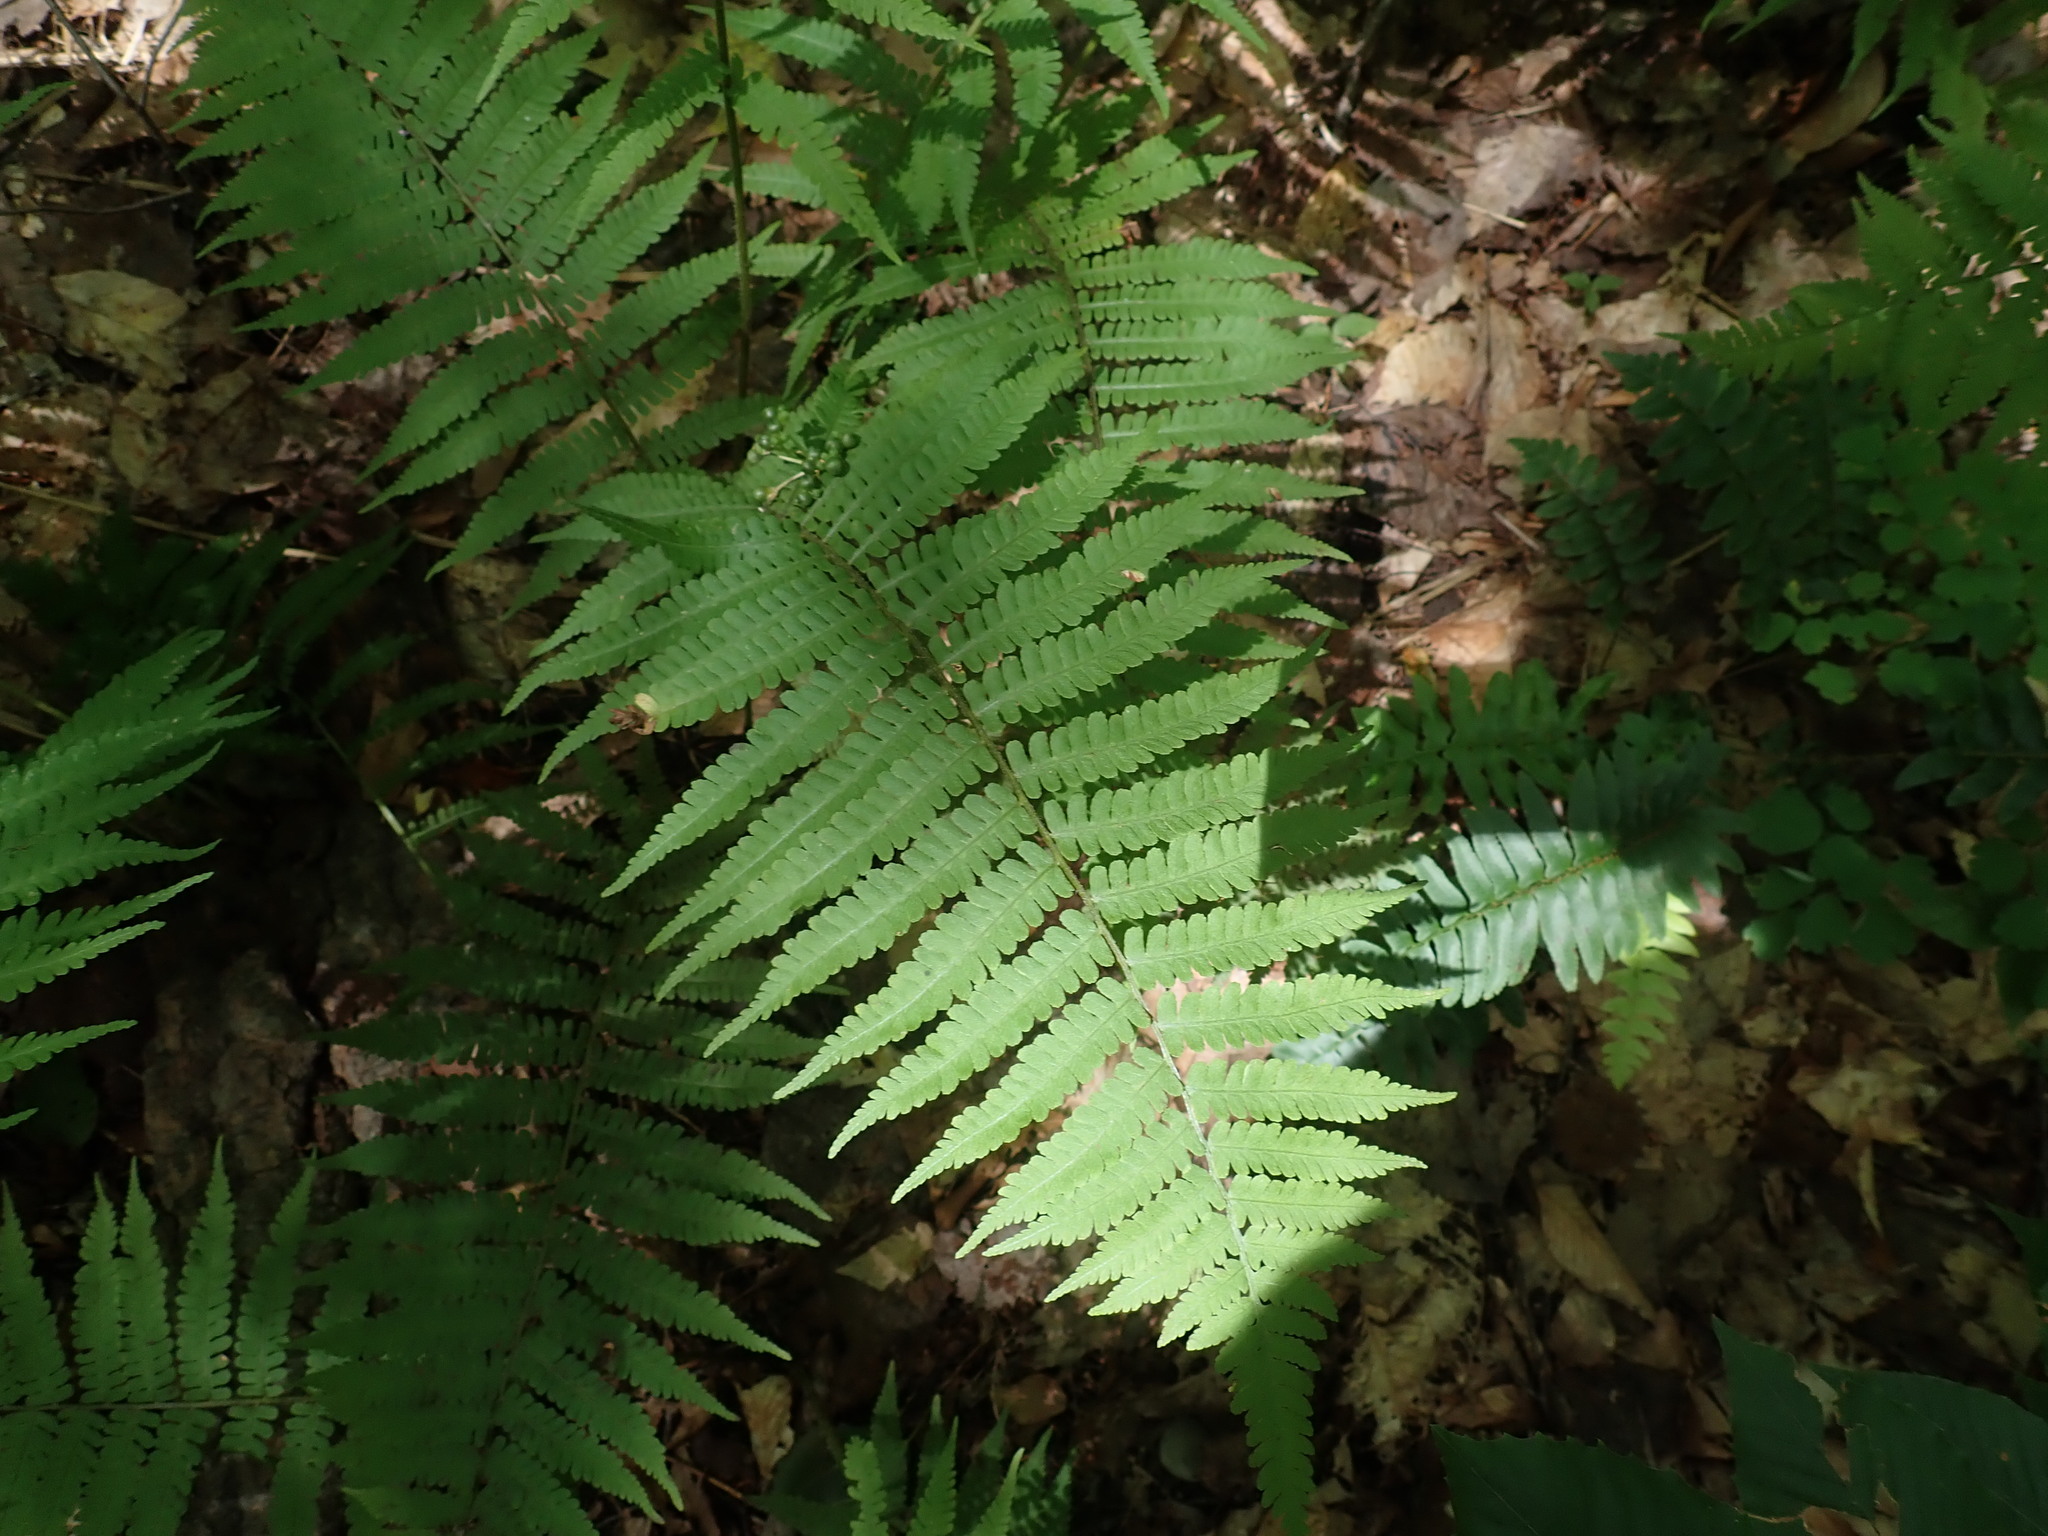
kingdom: Plantae
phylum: Tracheophyta
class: Polypodiopsida
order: Polypodiales
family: Athyriaceae
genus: Deparia
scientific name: Deparia acrostichoides
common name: Silver false spleenwort
